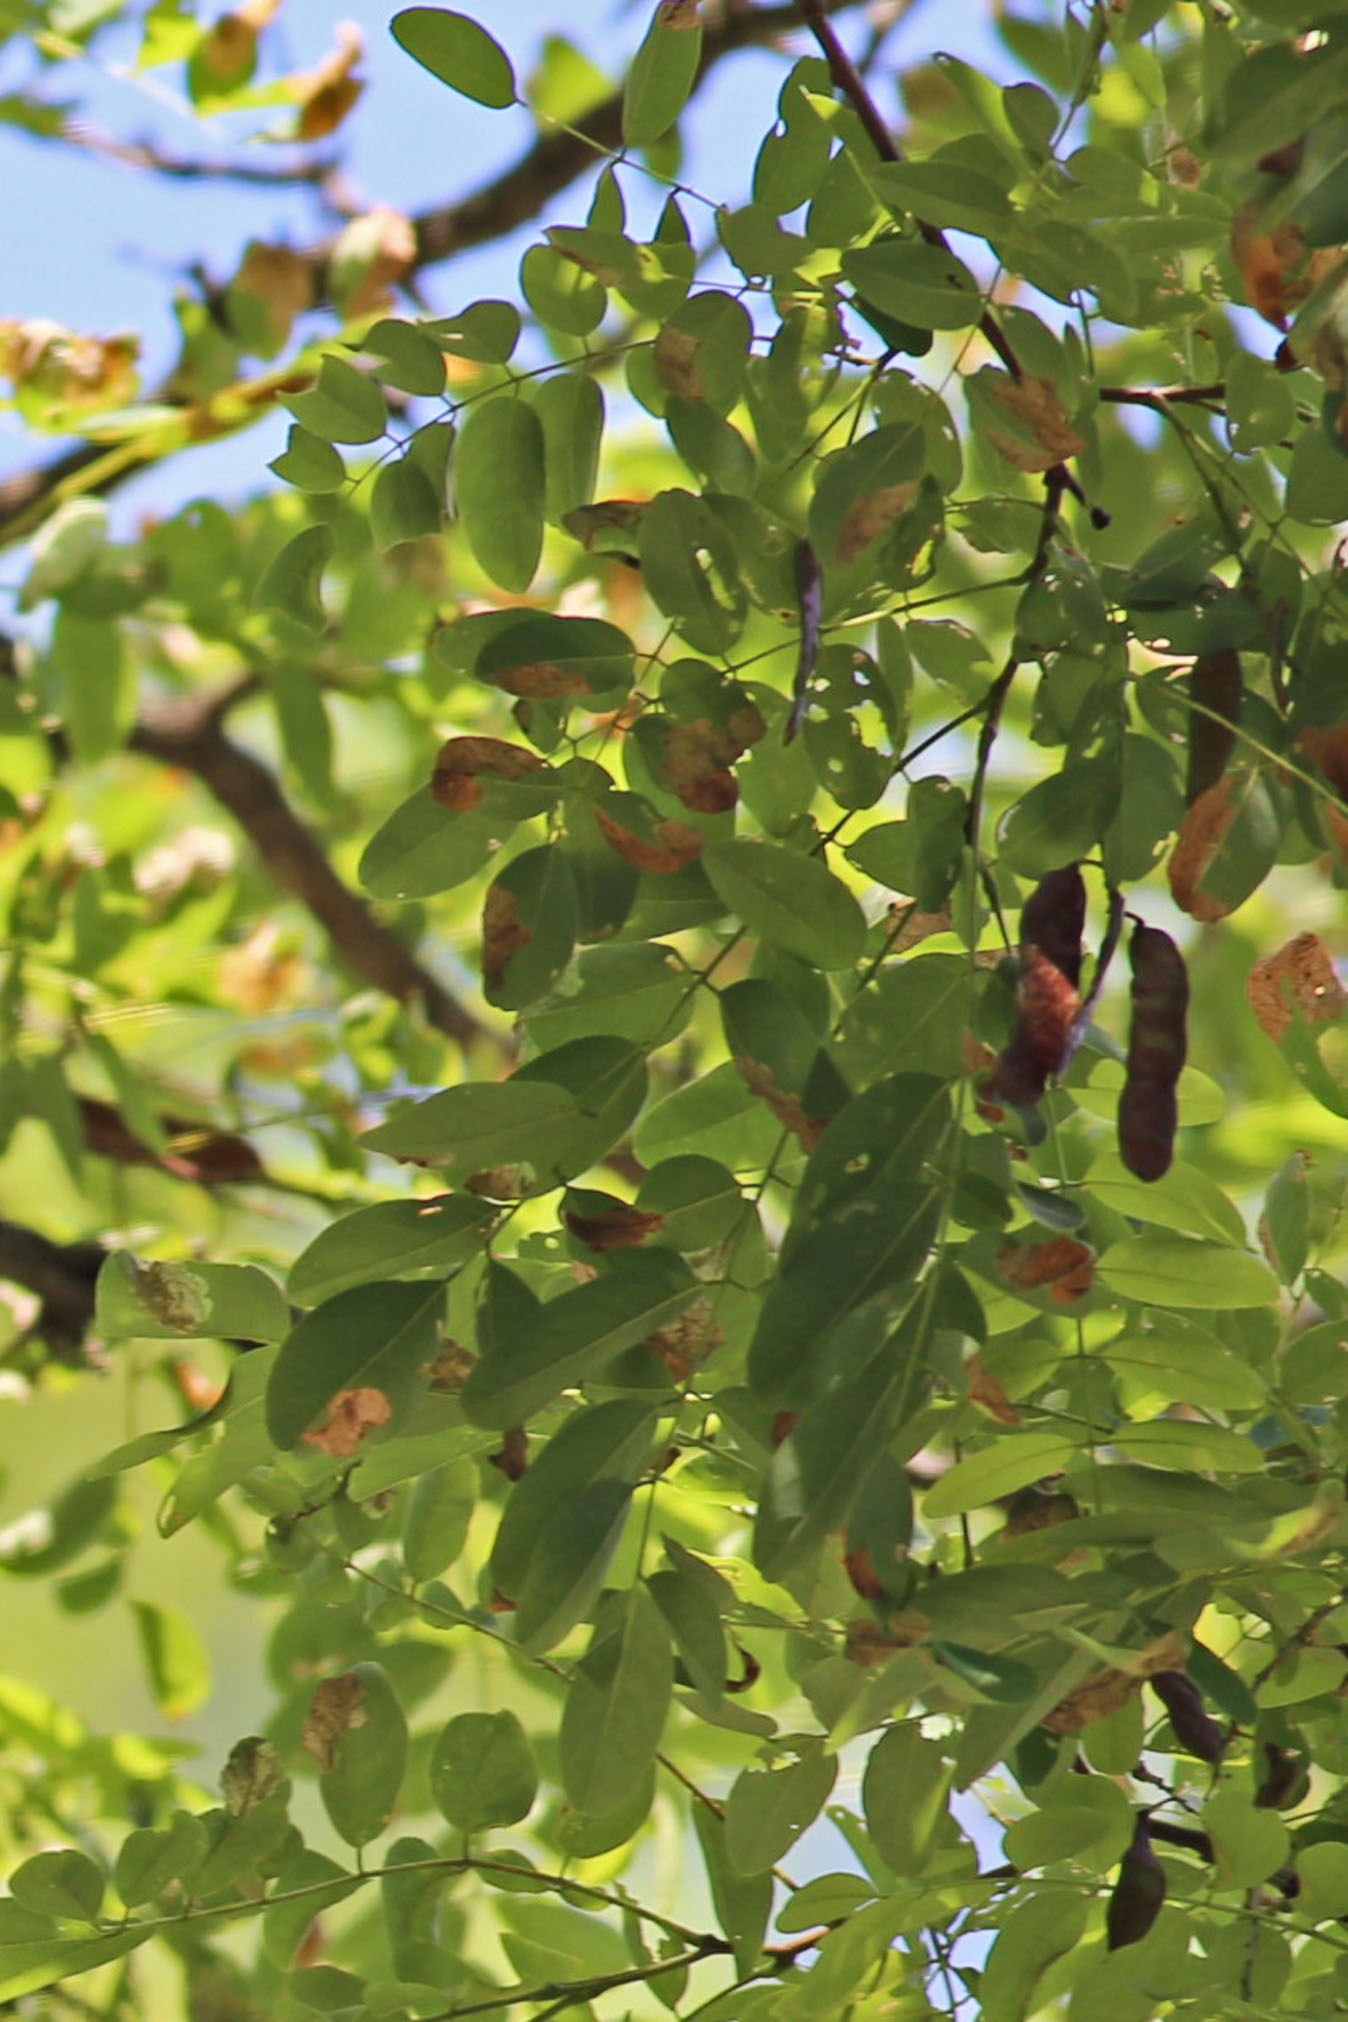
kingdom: Plantae
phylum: Tracheophyta
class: Magnoliopsida
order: Fabales
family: Fabaceae
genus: Robinia
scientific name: Robinia pseudoacacia
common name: Black locust
